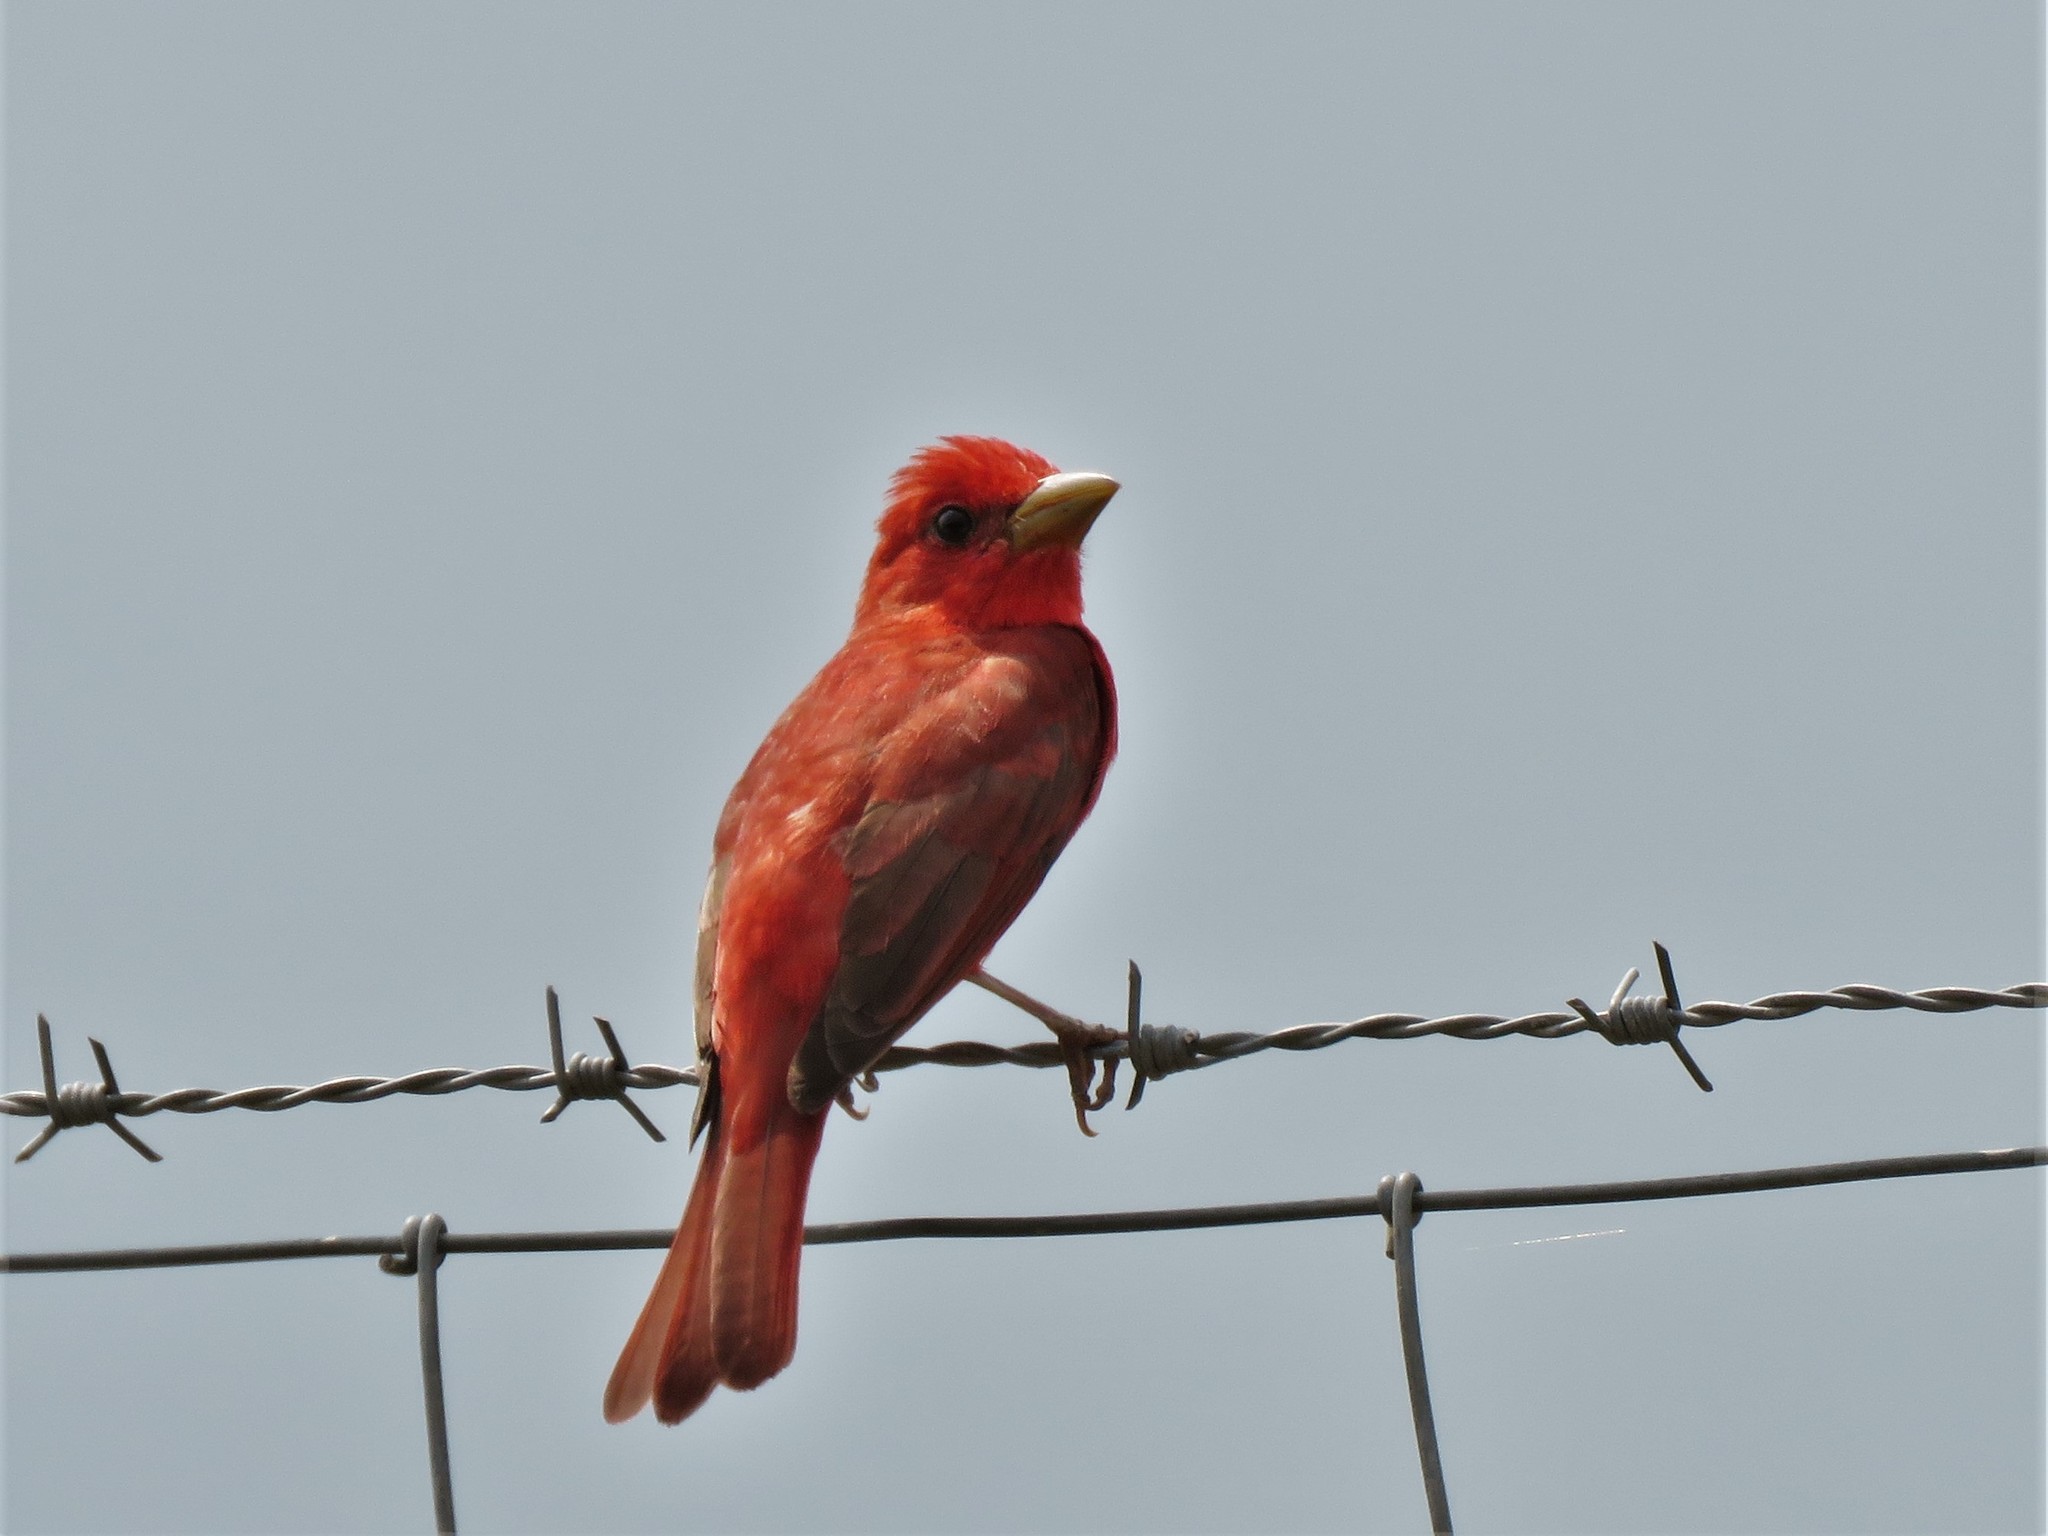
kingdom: Animalia
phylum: Chordata
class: Aves
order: Passeriformes
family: Cardinalidae
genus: Piranga
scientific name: Piranga rubra
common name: Summer tanager
